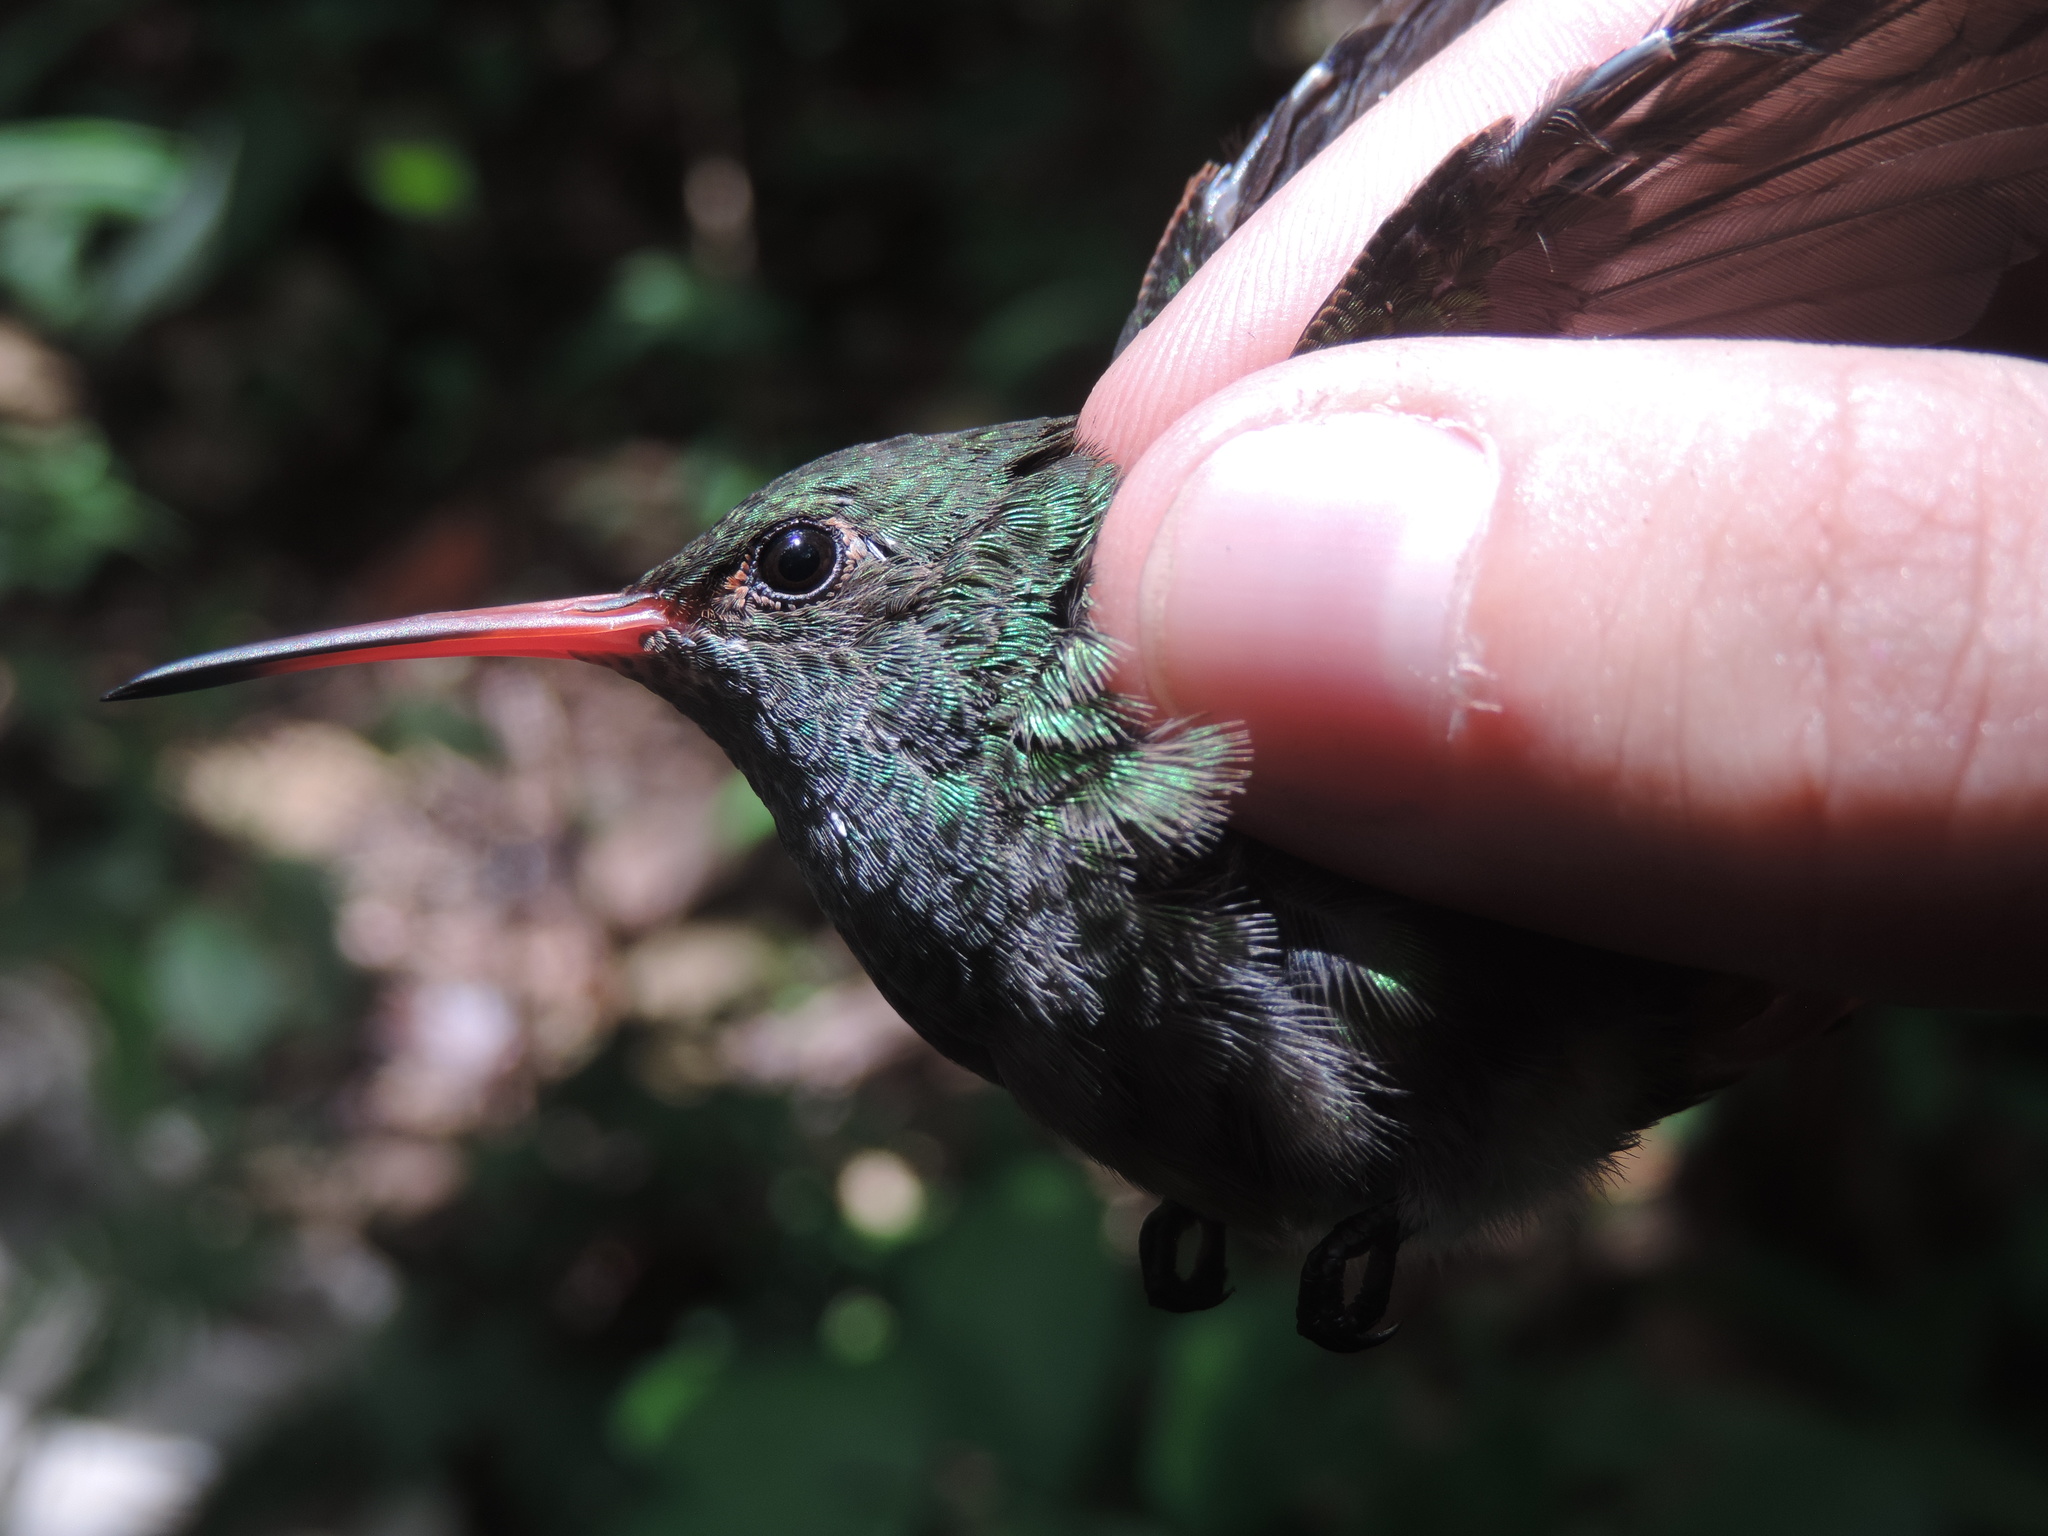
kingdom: Animalia
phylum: Chordata
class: Aves
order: Apodiformes
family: Trochilidae
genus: Amazilia
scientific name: Amazilia tzacatl
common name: Rufous-tailed hummingbird
